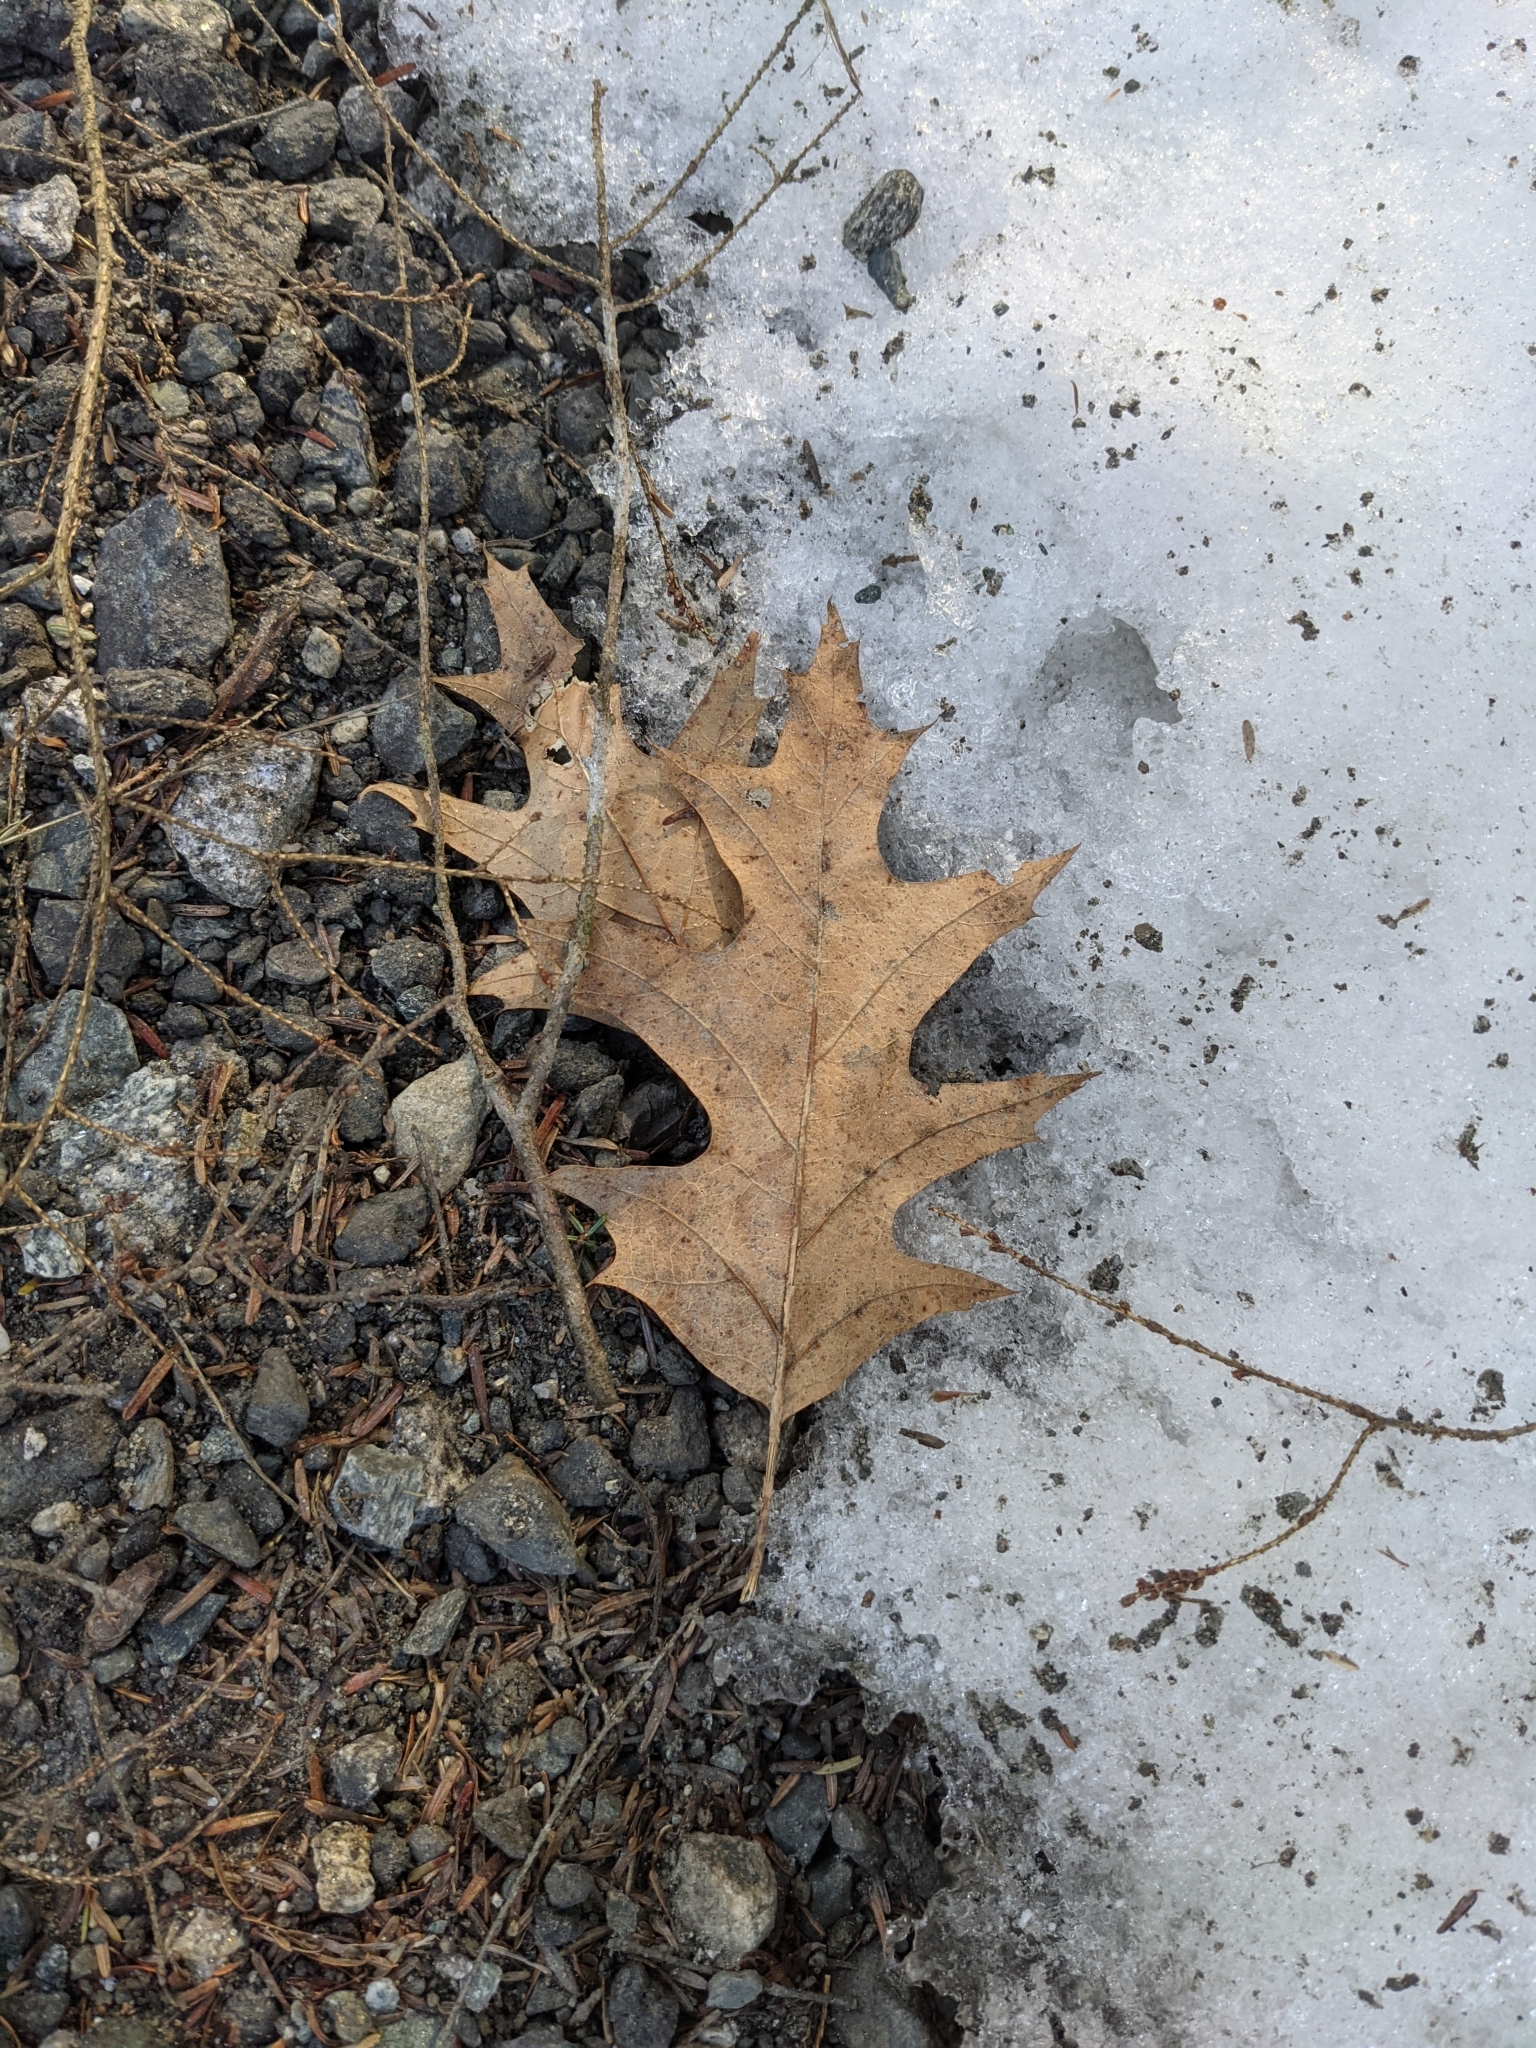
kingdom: Plantae
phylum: Tracheophyta
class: Magnoliopsida
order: Fagales
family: Fagaceae
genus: Quercus
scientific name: Quercus rubra
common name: Red oak
